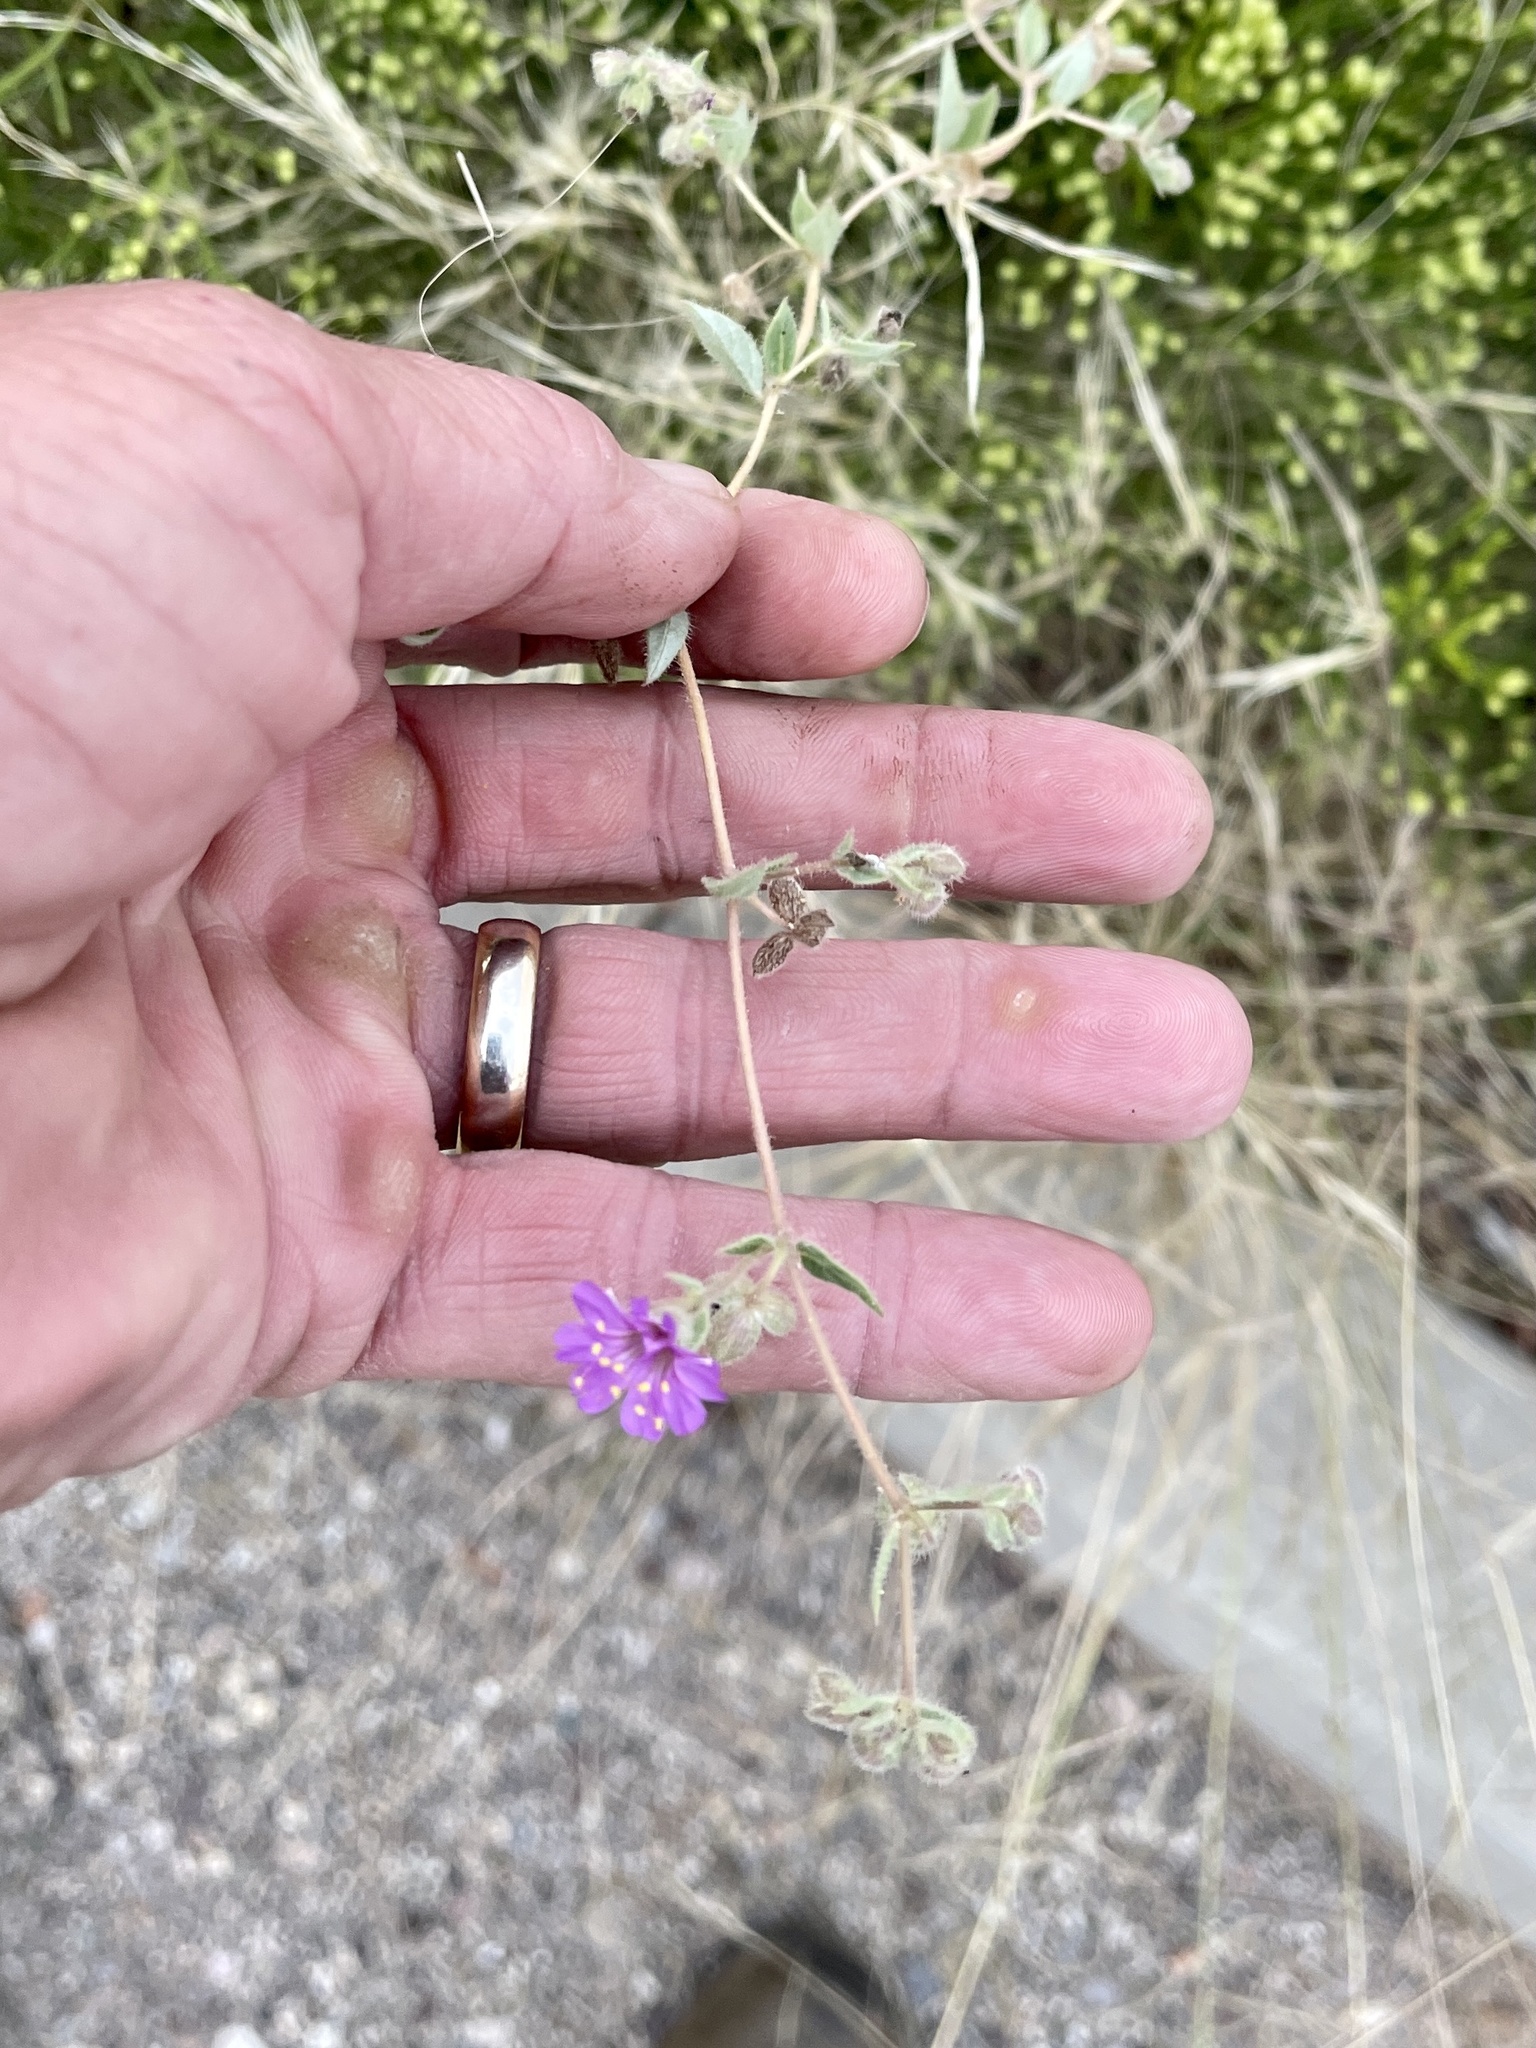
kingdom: Plantae
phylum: Tracheophyta
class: Magnoliopsida
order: Caryophyllales
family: Nyctaginaceae
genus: Allionia
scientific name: Allionia incarnata
